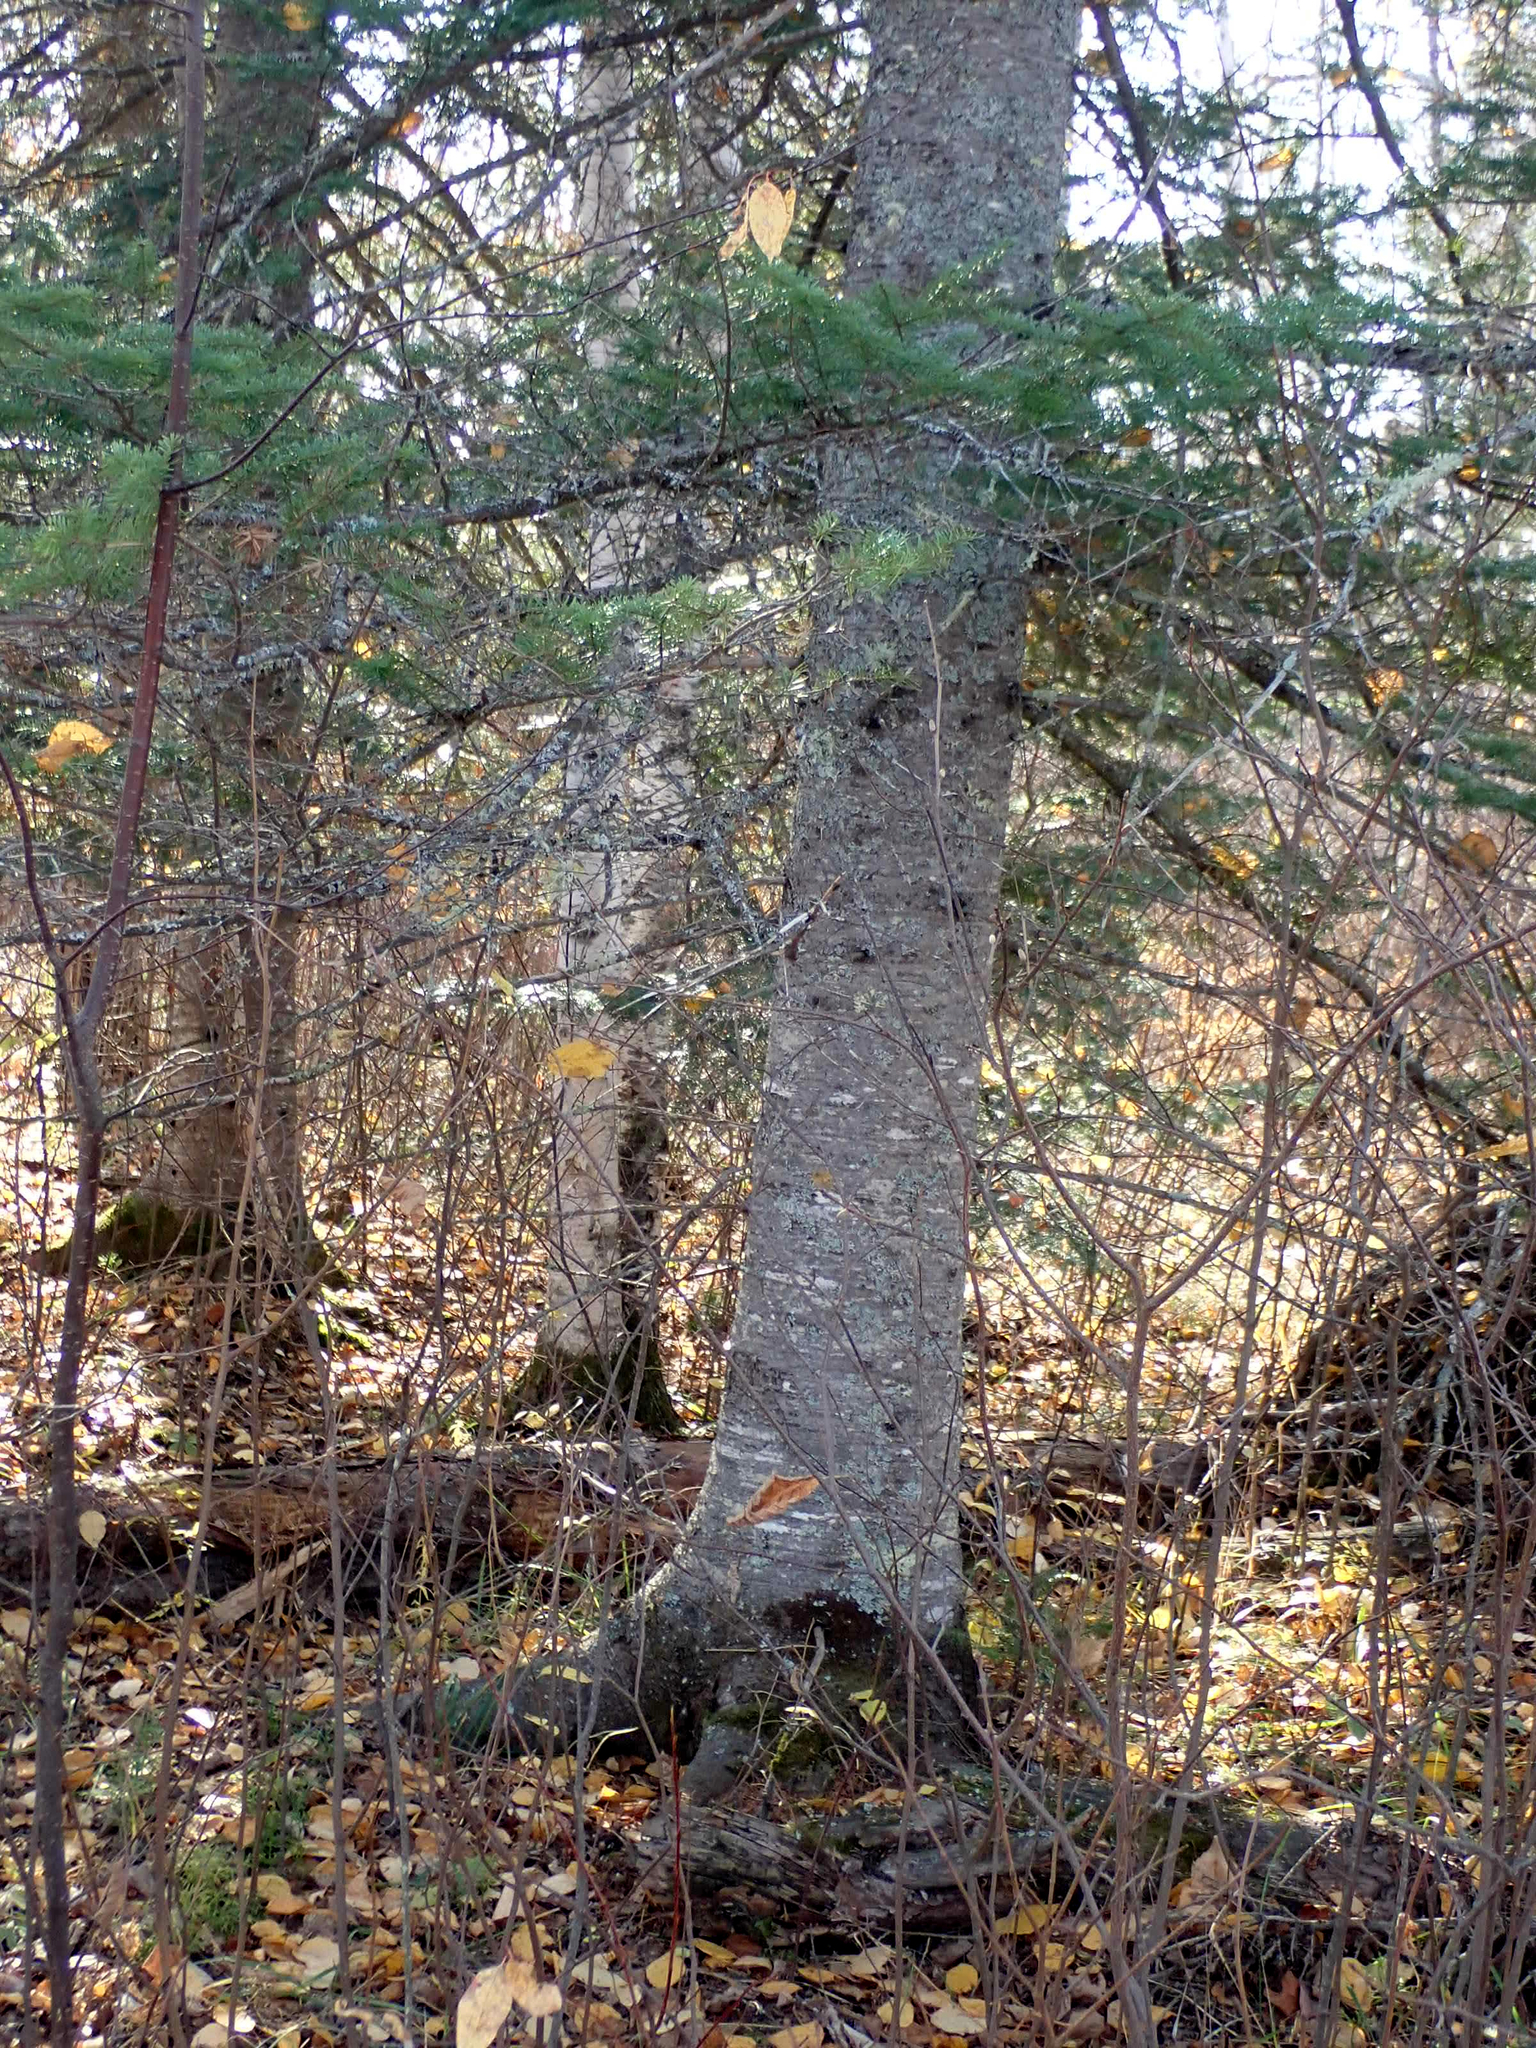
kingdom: Plantae
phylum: Tracheophyta
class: Pinopsida
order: Pinales
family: Pinaceae
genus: Abies
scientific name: Abies balsamea
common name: Balsam fir
